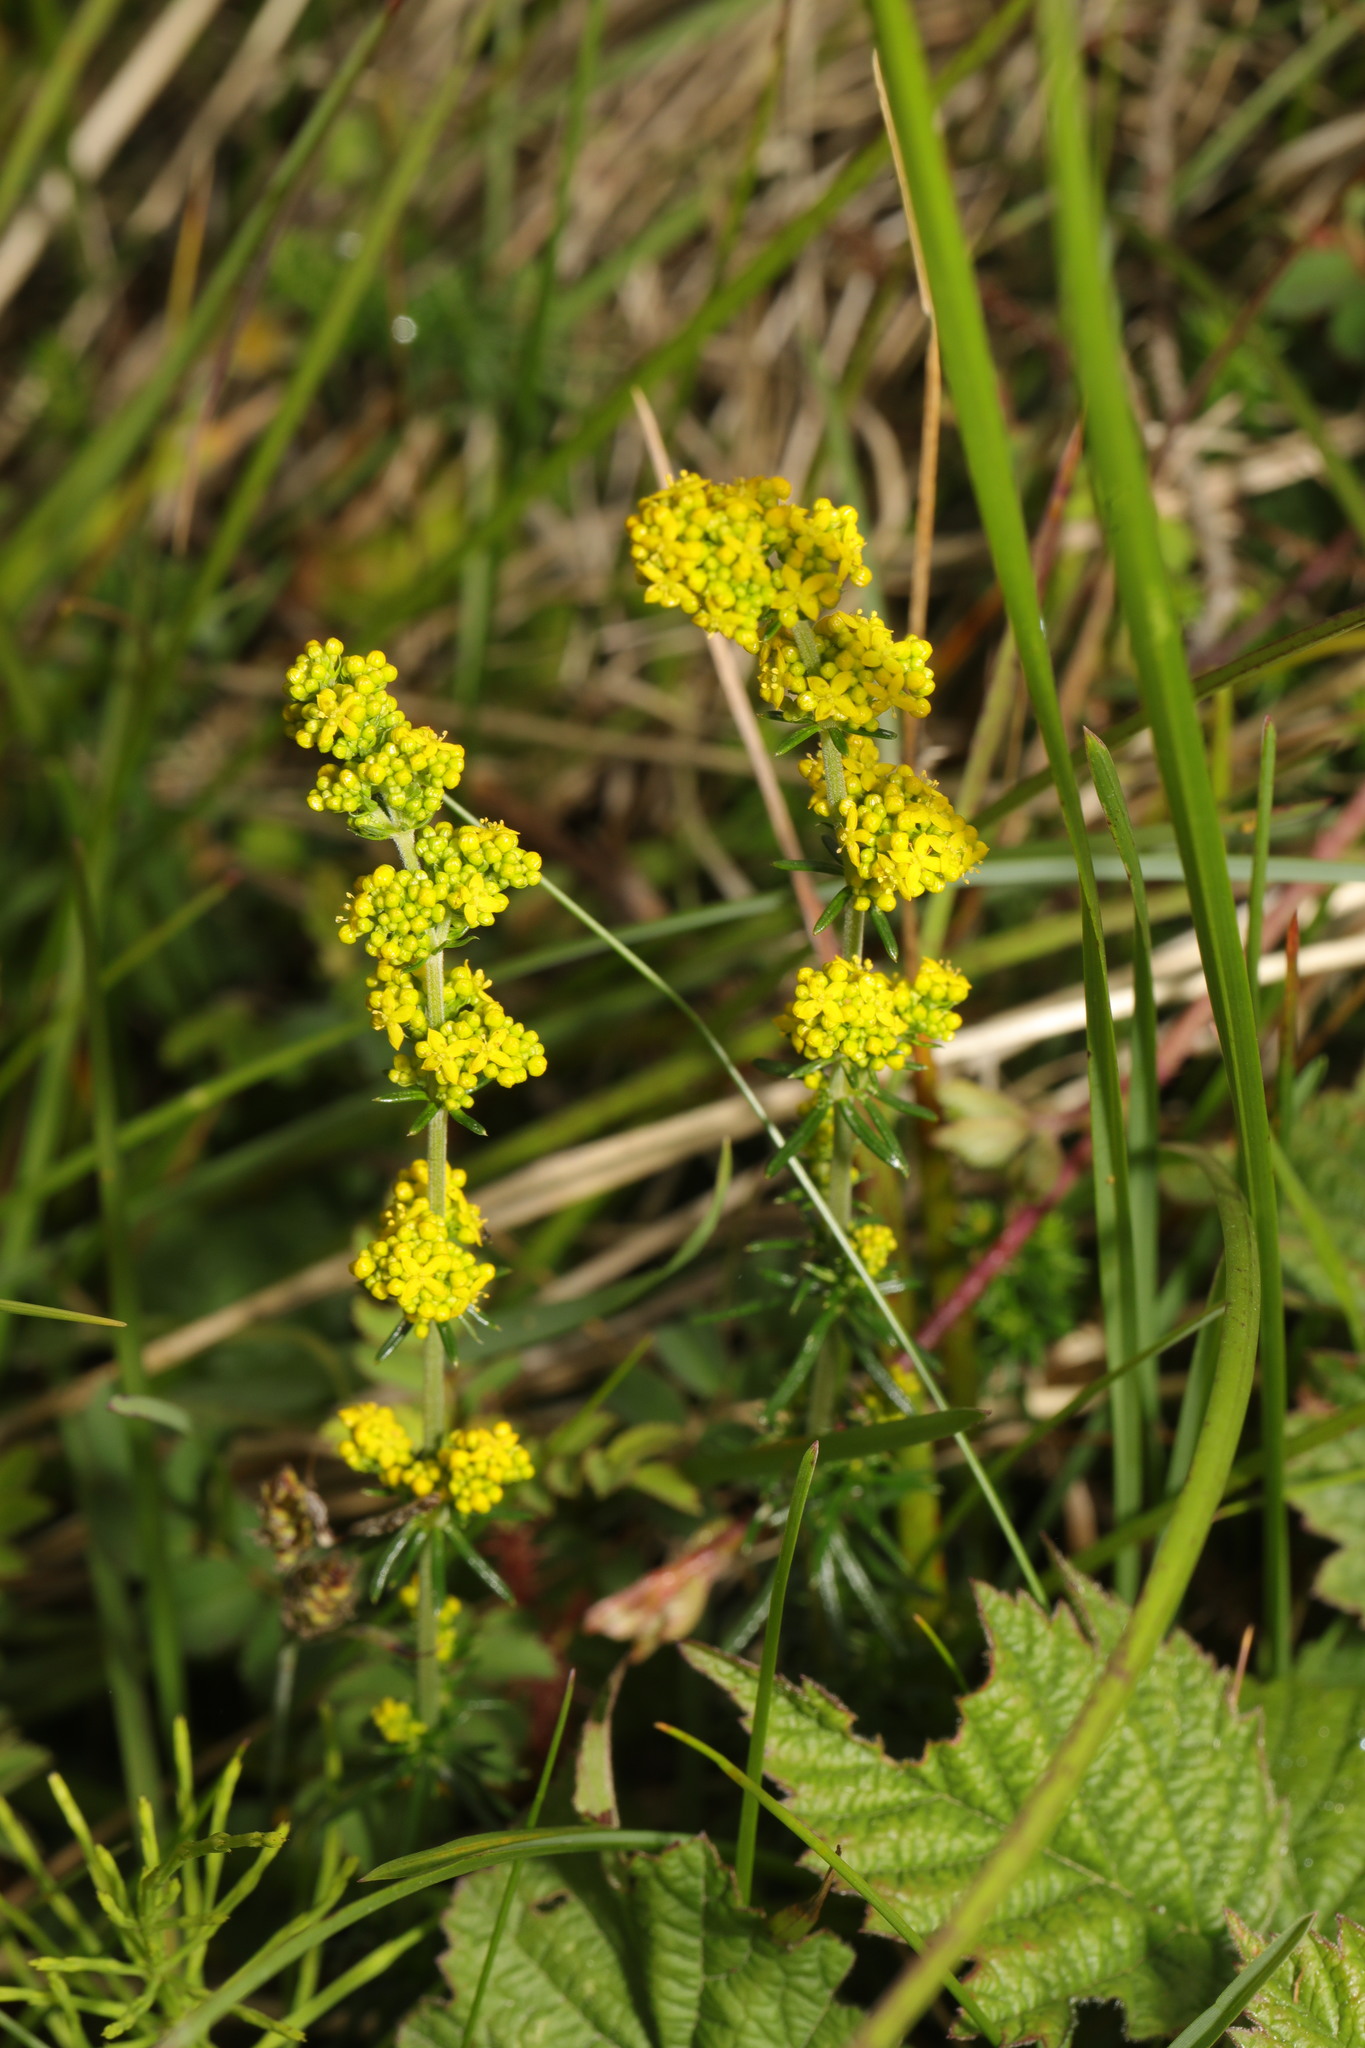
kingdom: Plantae
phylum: Tracheophyta
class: Magnoliopsida
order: Gentianales
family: Rubiaceae
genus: Galium
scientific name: Galium verum
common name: Lady's bedstraw
